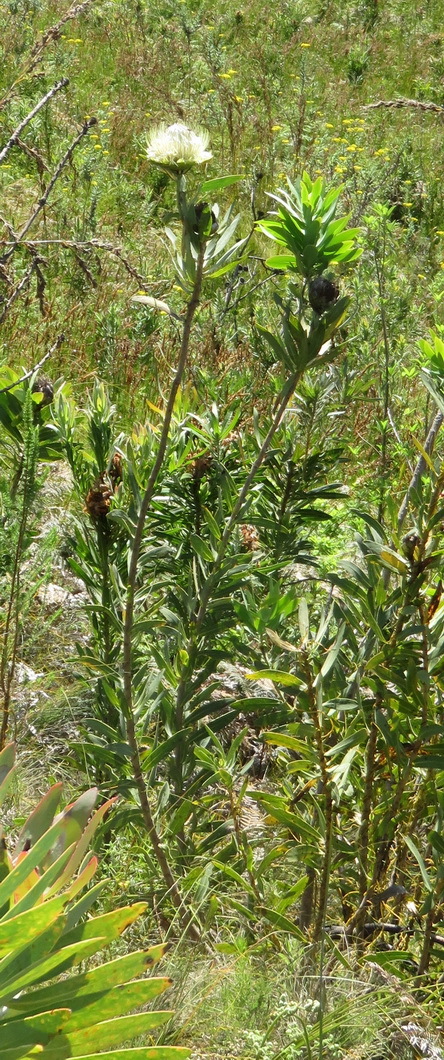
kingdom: Plantae
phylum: Tracheophyta
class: Magnoliopsida
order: Proteales
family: Proteaceae
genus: Protea
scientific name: Protea nitida
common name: Tree protea
